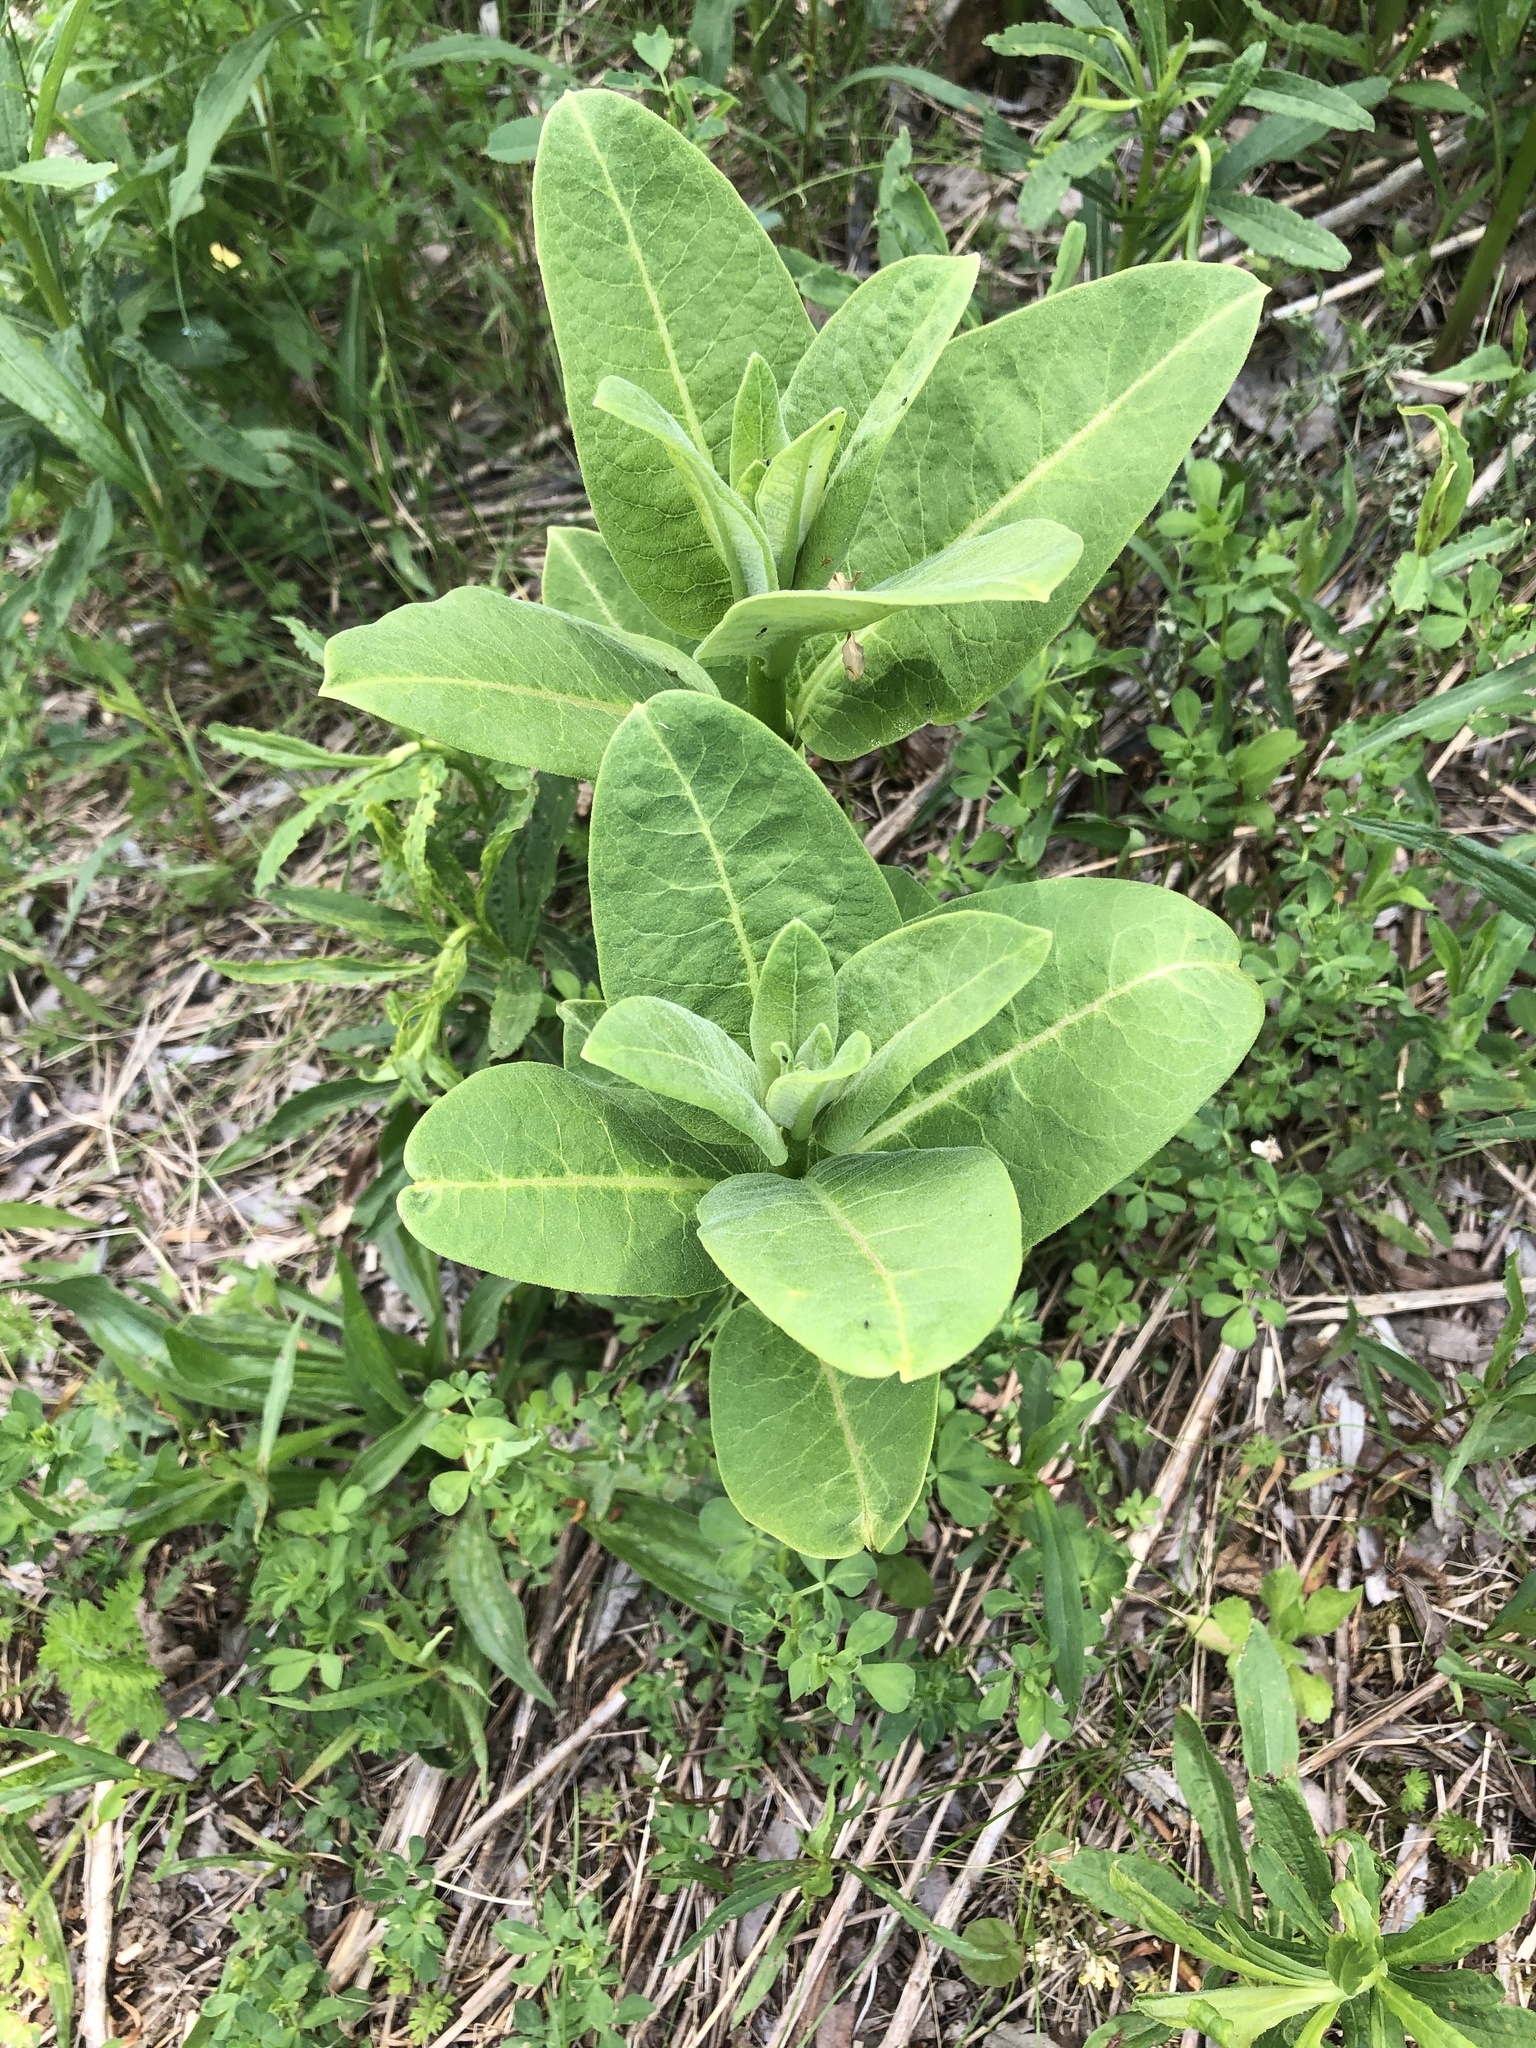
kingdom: Plantae
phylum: Tracheophyta
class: Magnoliopsida
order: Gentianales
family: Apocynaceae
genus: Asclepias
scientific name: Asclepias syriaca
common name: Common milkweed
